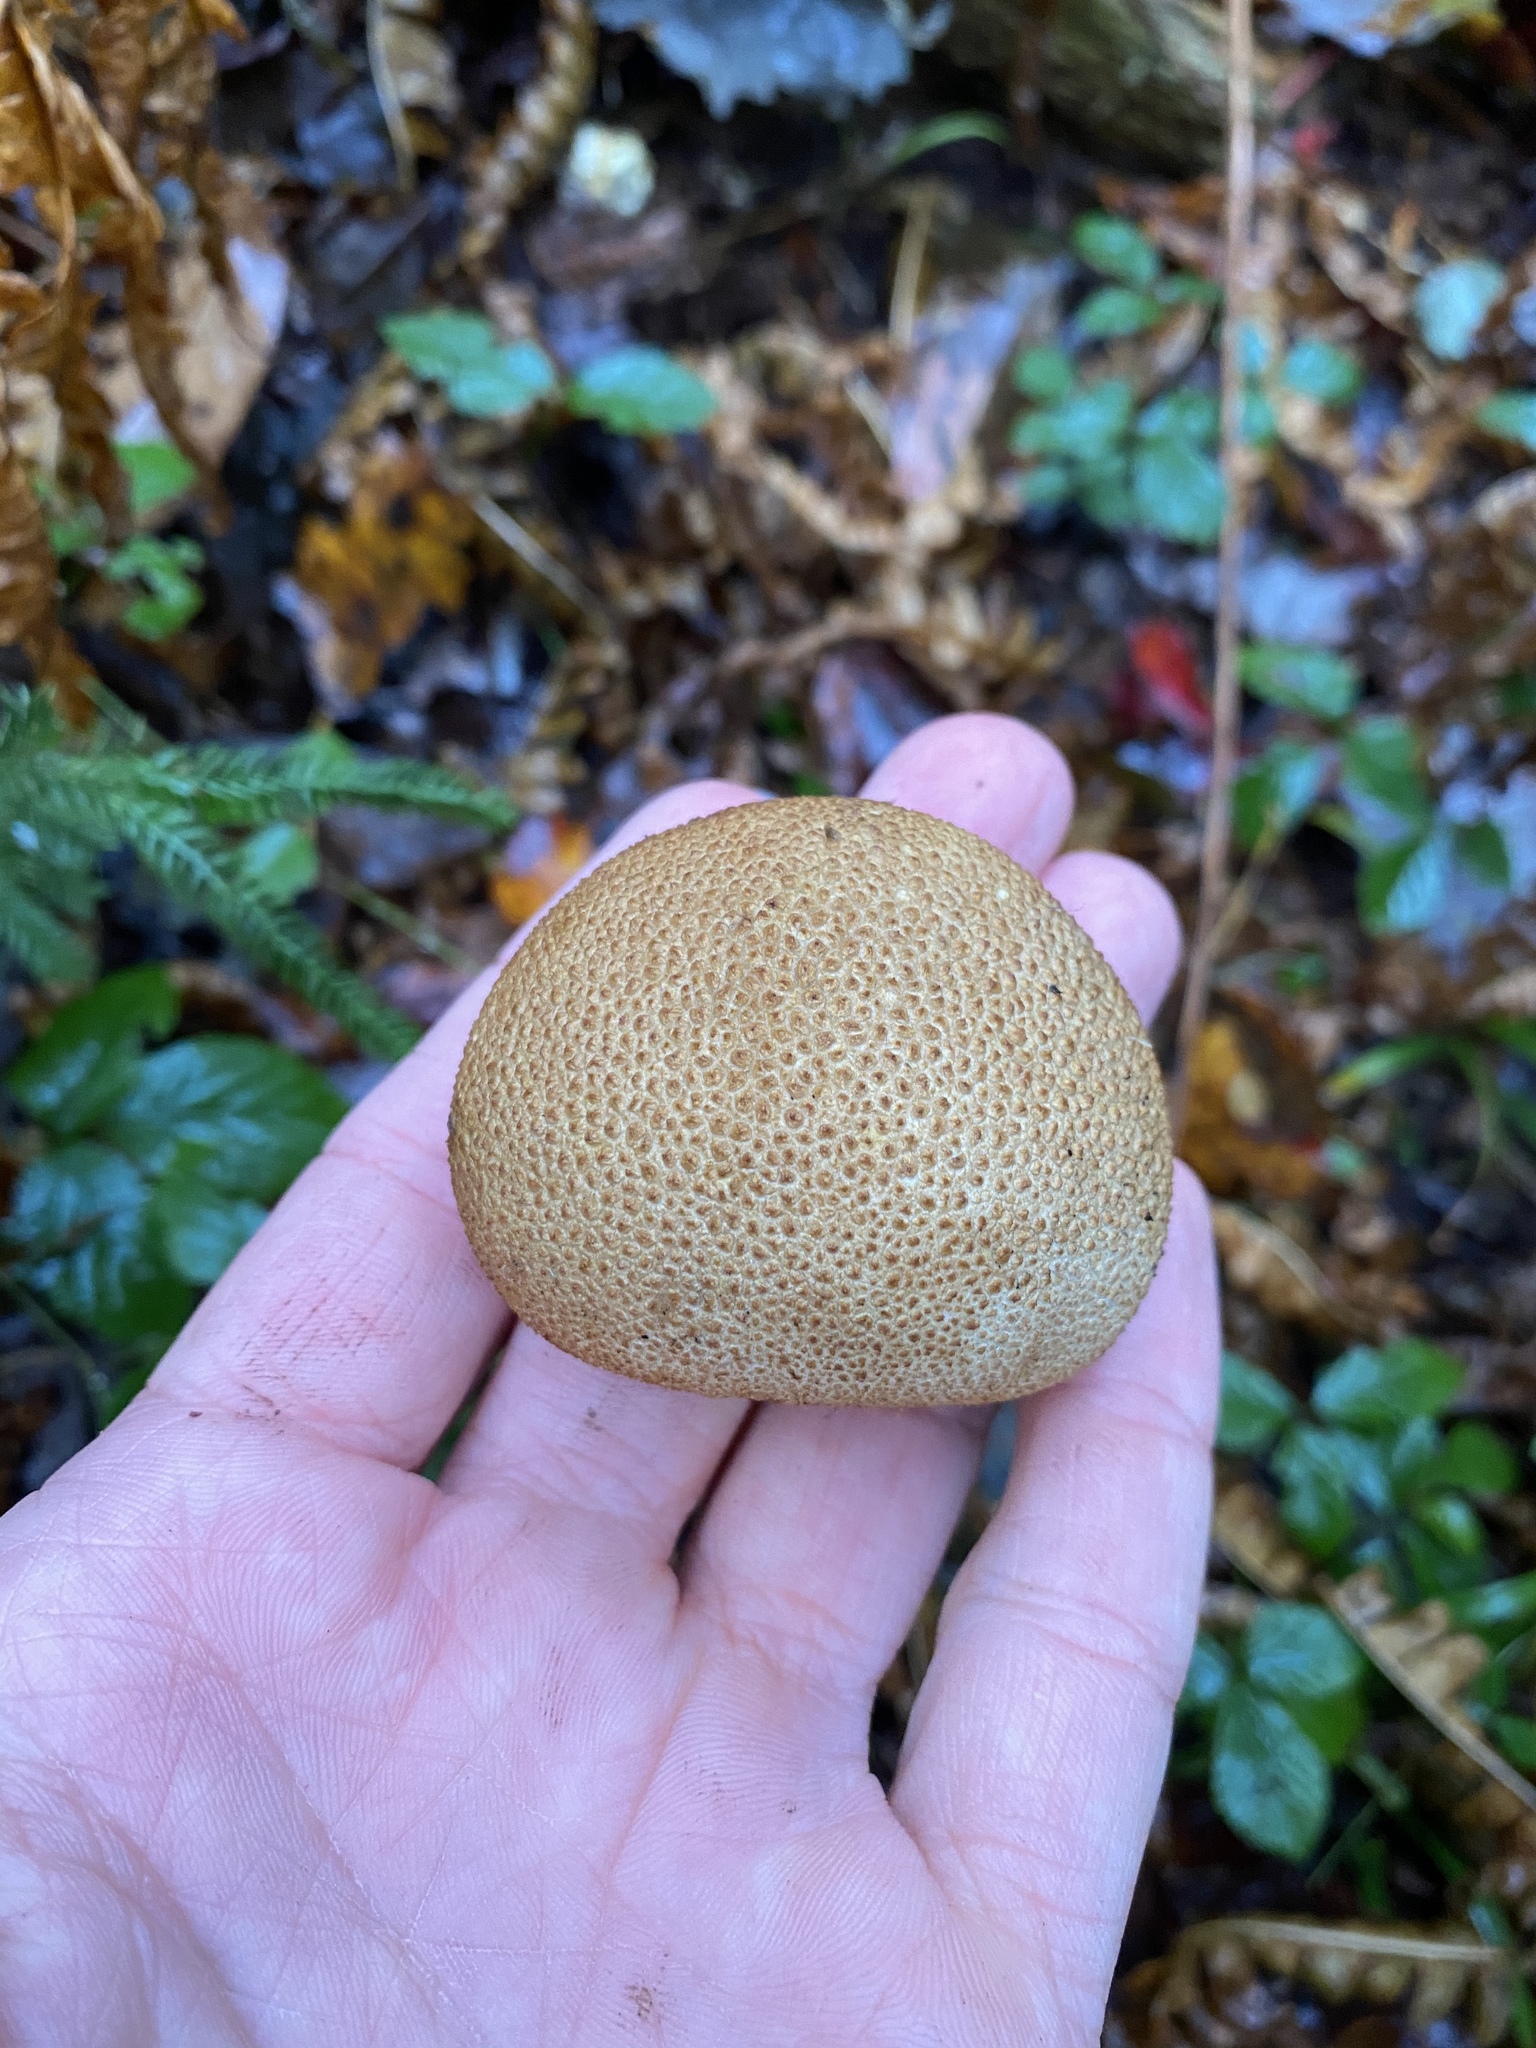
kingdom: Fungi
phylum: Basidiomycota
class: Agaricomycetes
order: Boletales
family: Sclerodermataceae
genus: Scleroderma
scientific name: Scleroderma citrinum
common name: Common earthball
